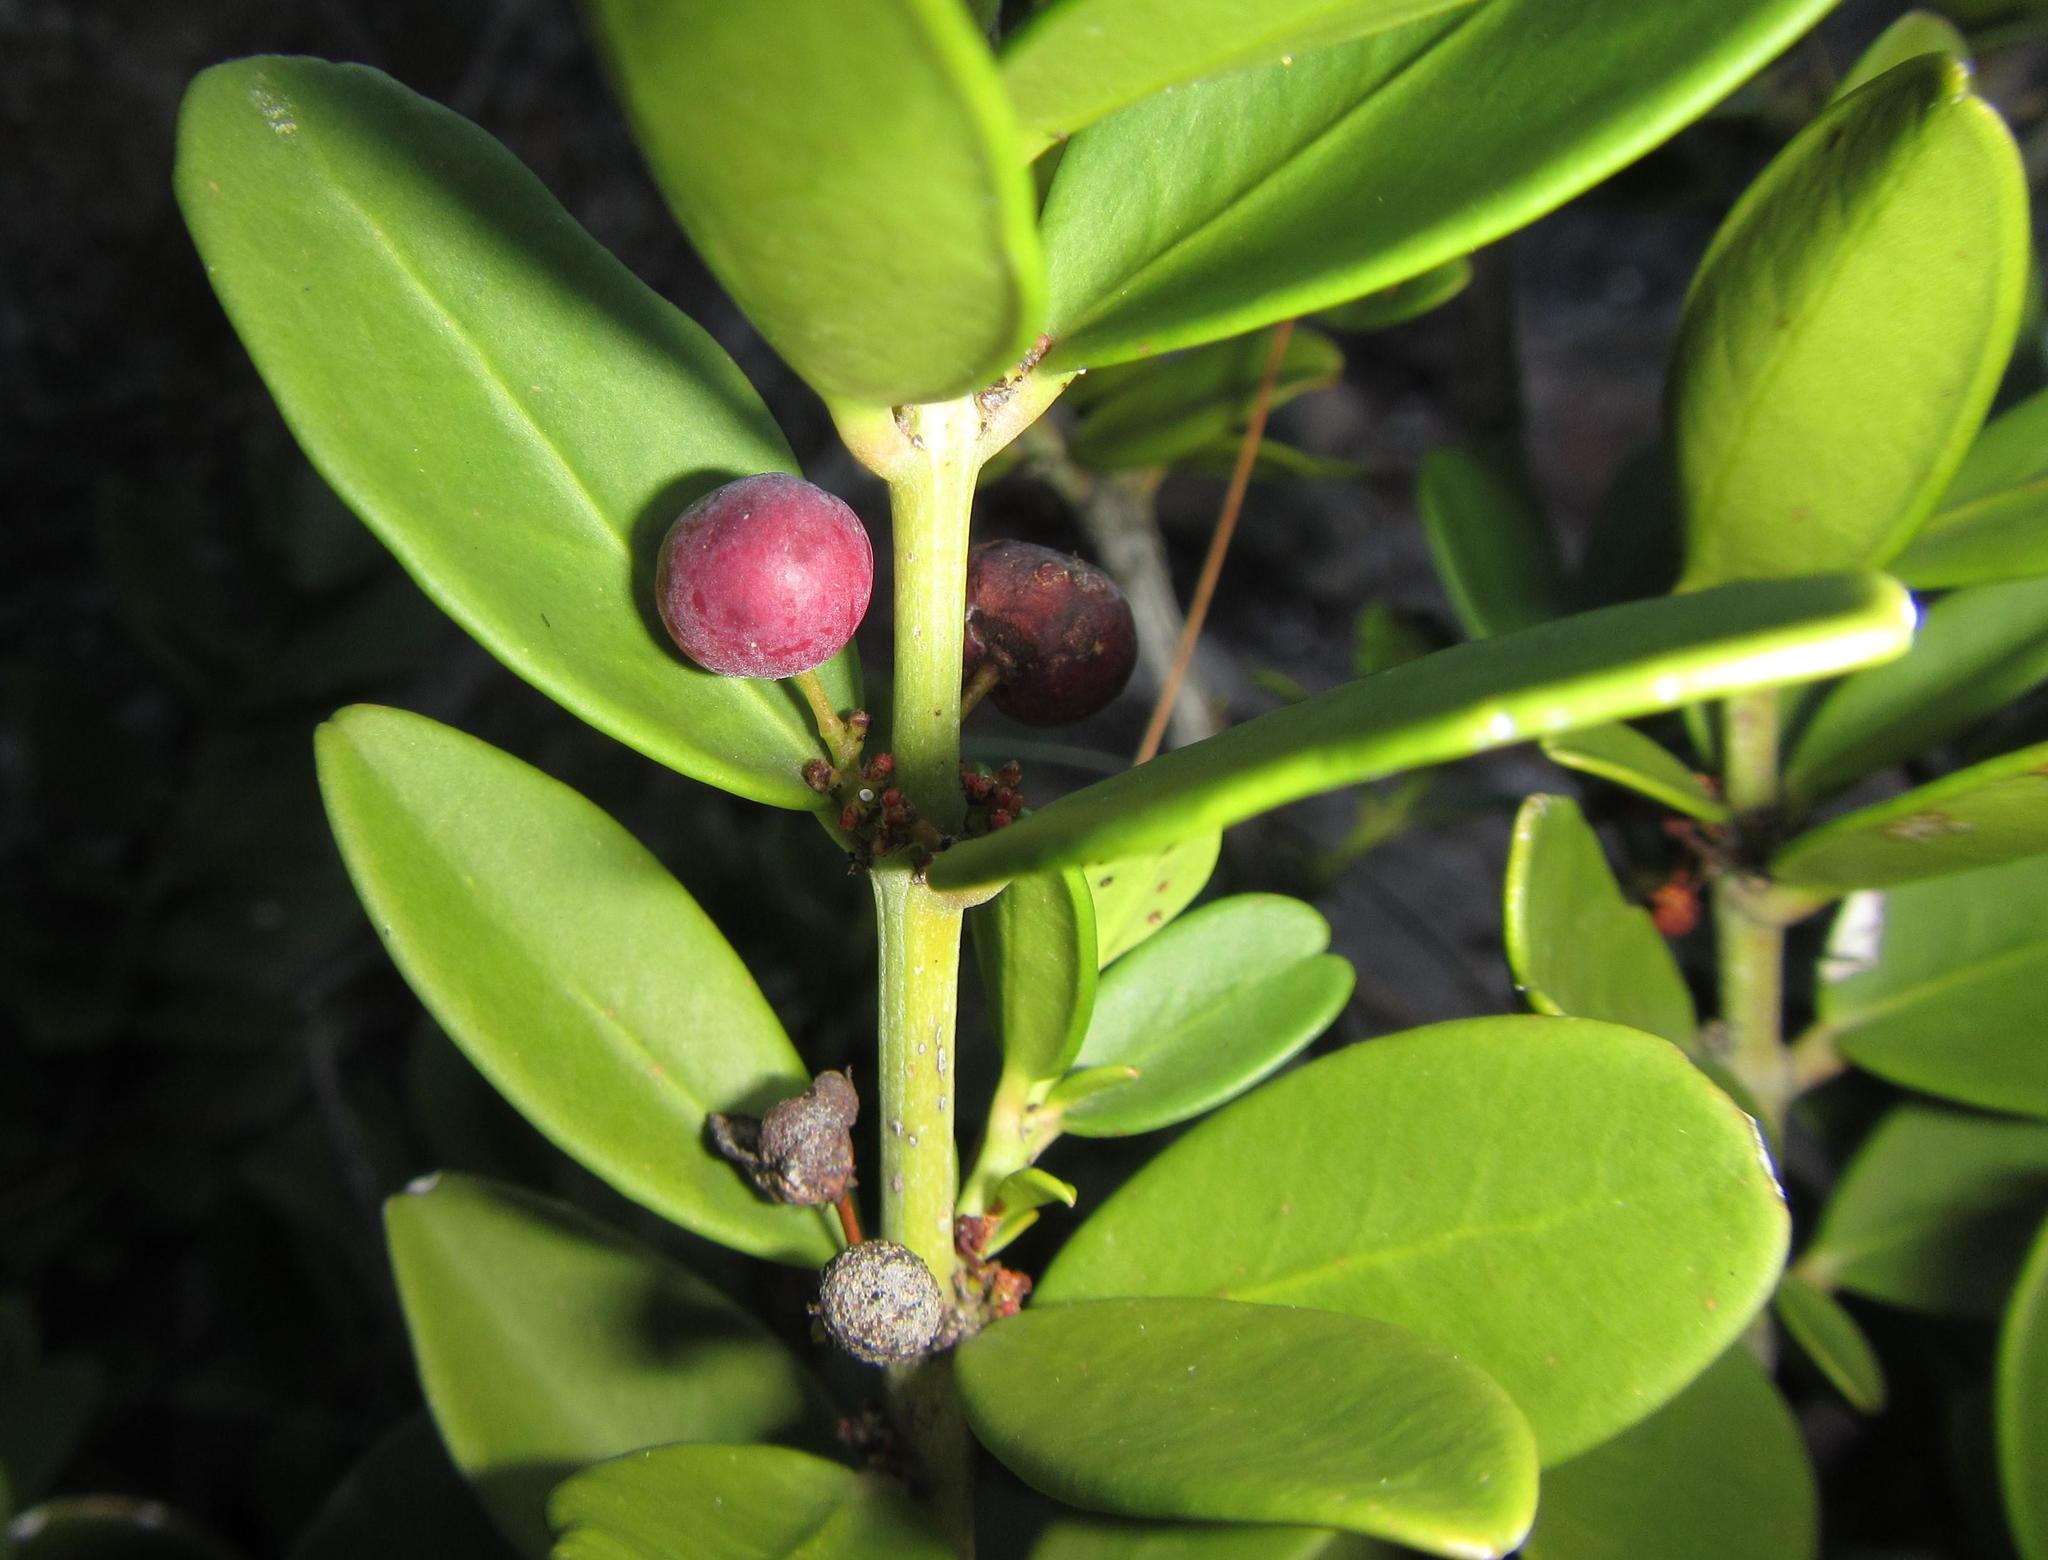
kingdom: Plantae
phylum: Tracheophyta
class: Magnoliopsida
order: Celastrales
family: Celastraceae
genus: Cassine
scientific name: Cassine parvifolia
